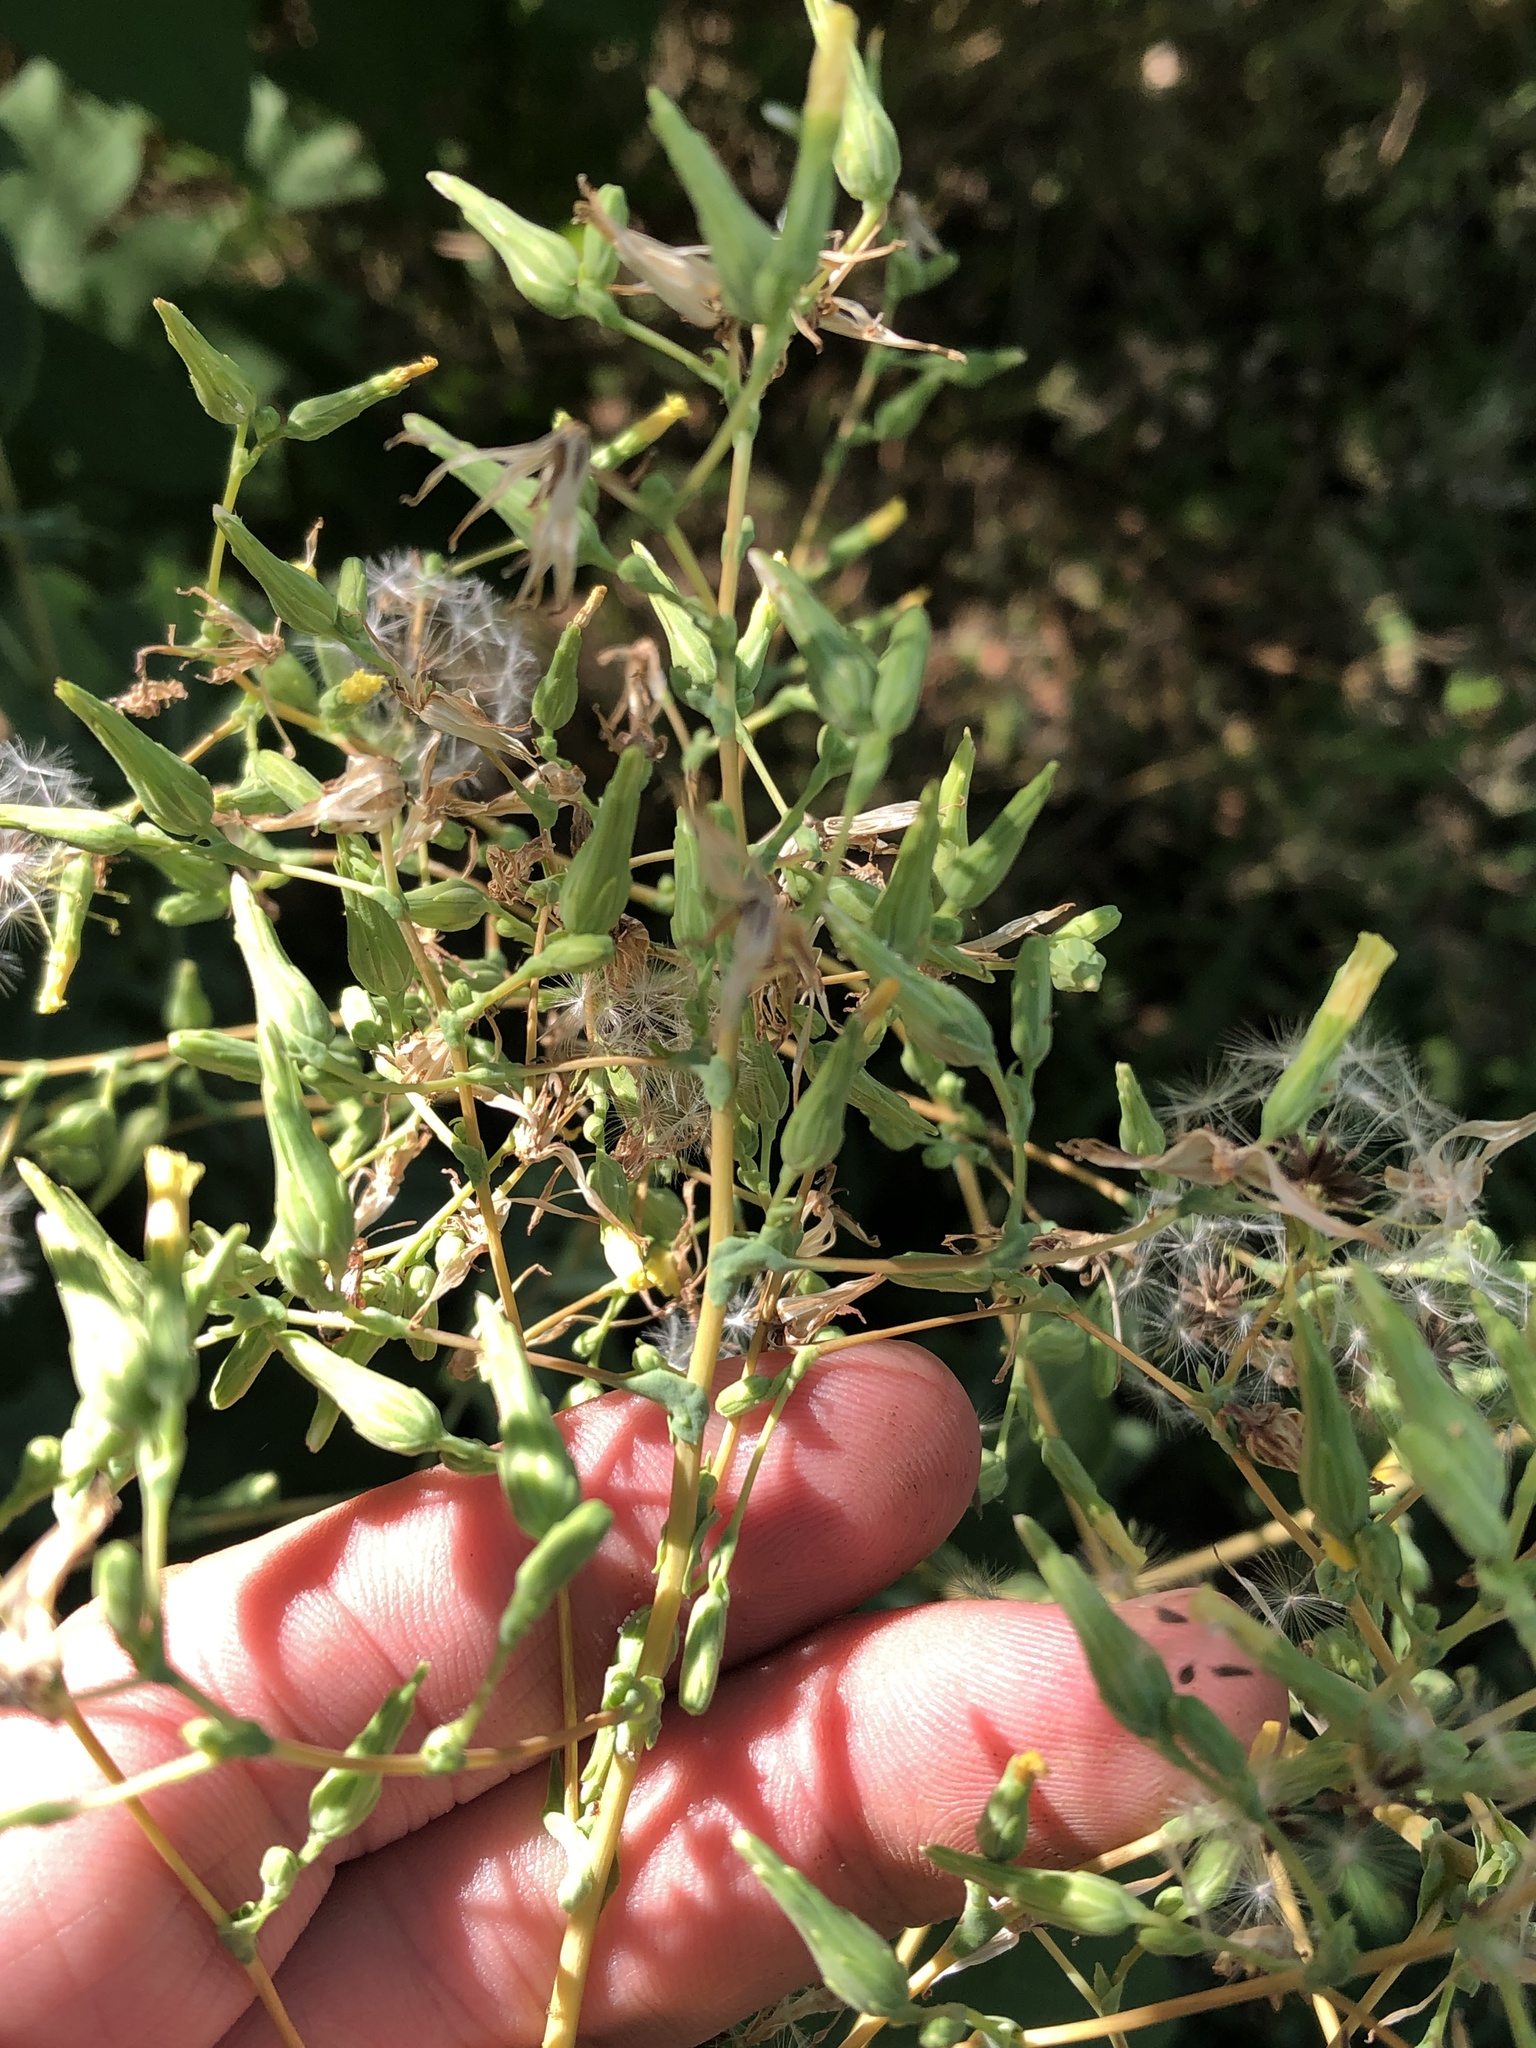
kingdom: Plantae
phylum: Tracheophyta
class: Magnoliopsida
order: Asterales
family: Asteraceae
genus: Lactuca
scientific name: Lactuca serriola
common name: Prickly lettuce
